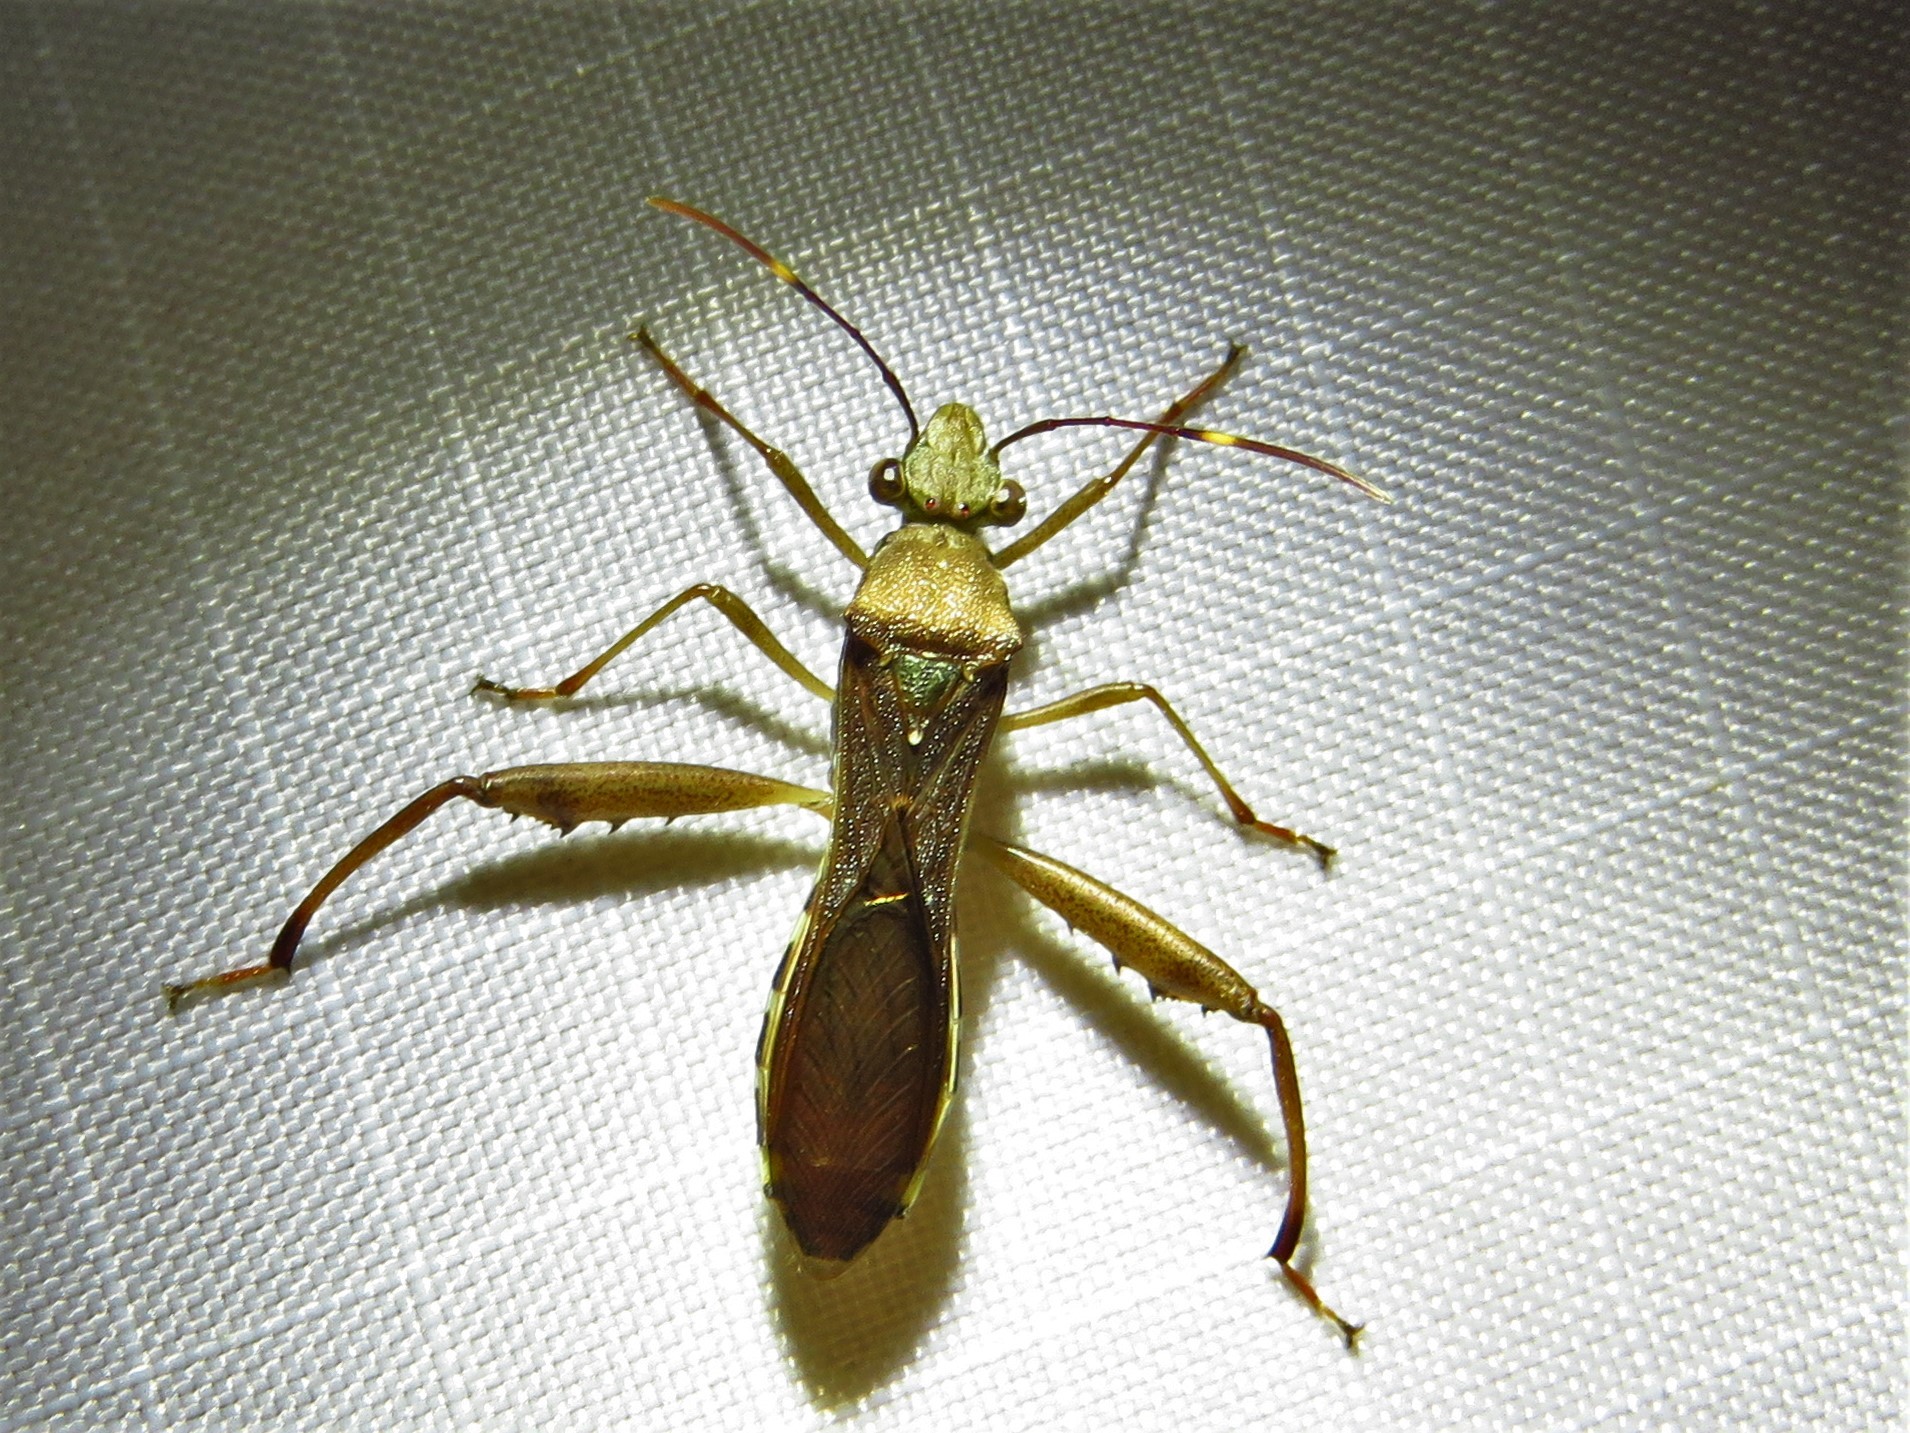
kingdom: Animalia
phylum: Arthropoda
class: Insecta
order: Hemiptera
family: Alydidae
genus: Hyalymenus
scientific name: Hyalymenus tarsatus
